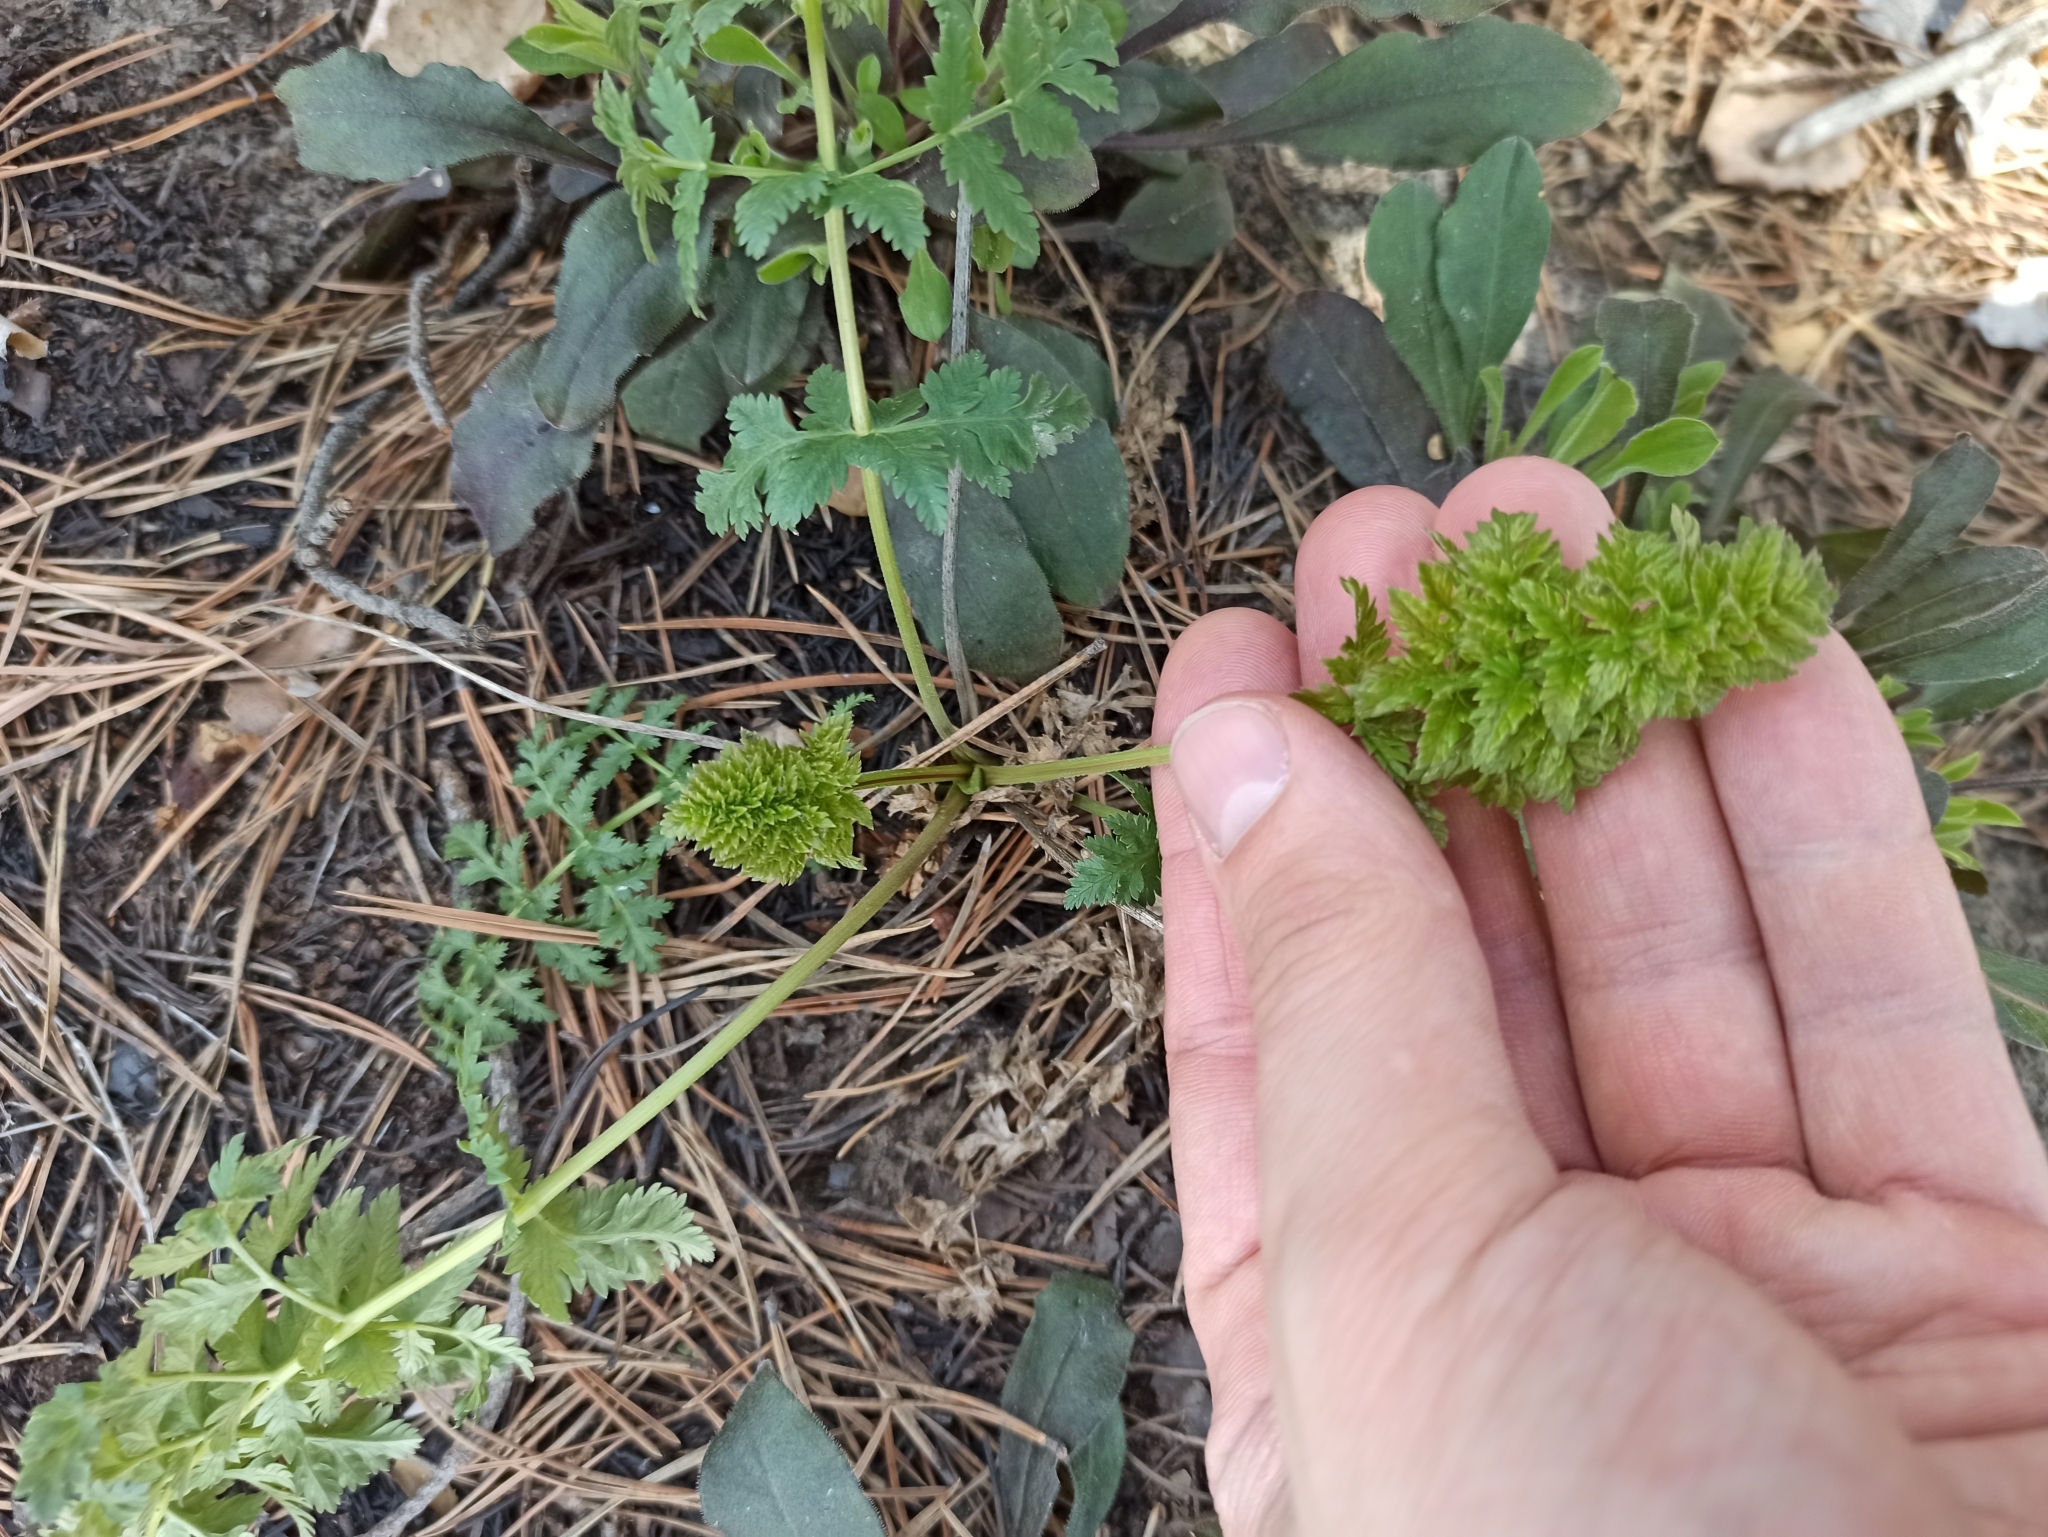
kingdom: Plantae
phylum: Tracheophyta
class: Magnoliopsida
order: Apiales
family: Apiaceae
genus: Seseli
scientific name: Seseli libanotis
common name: Mooncarrot
